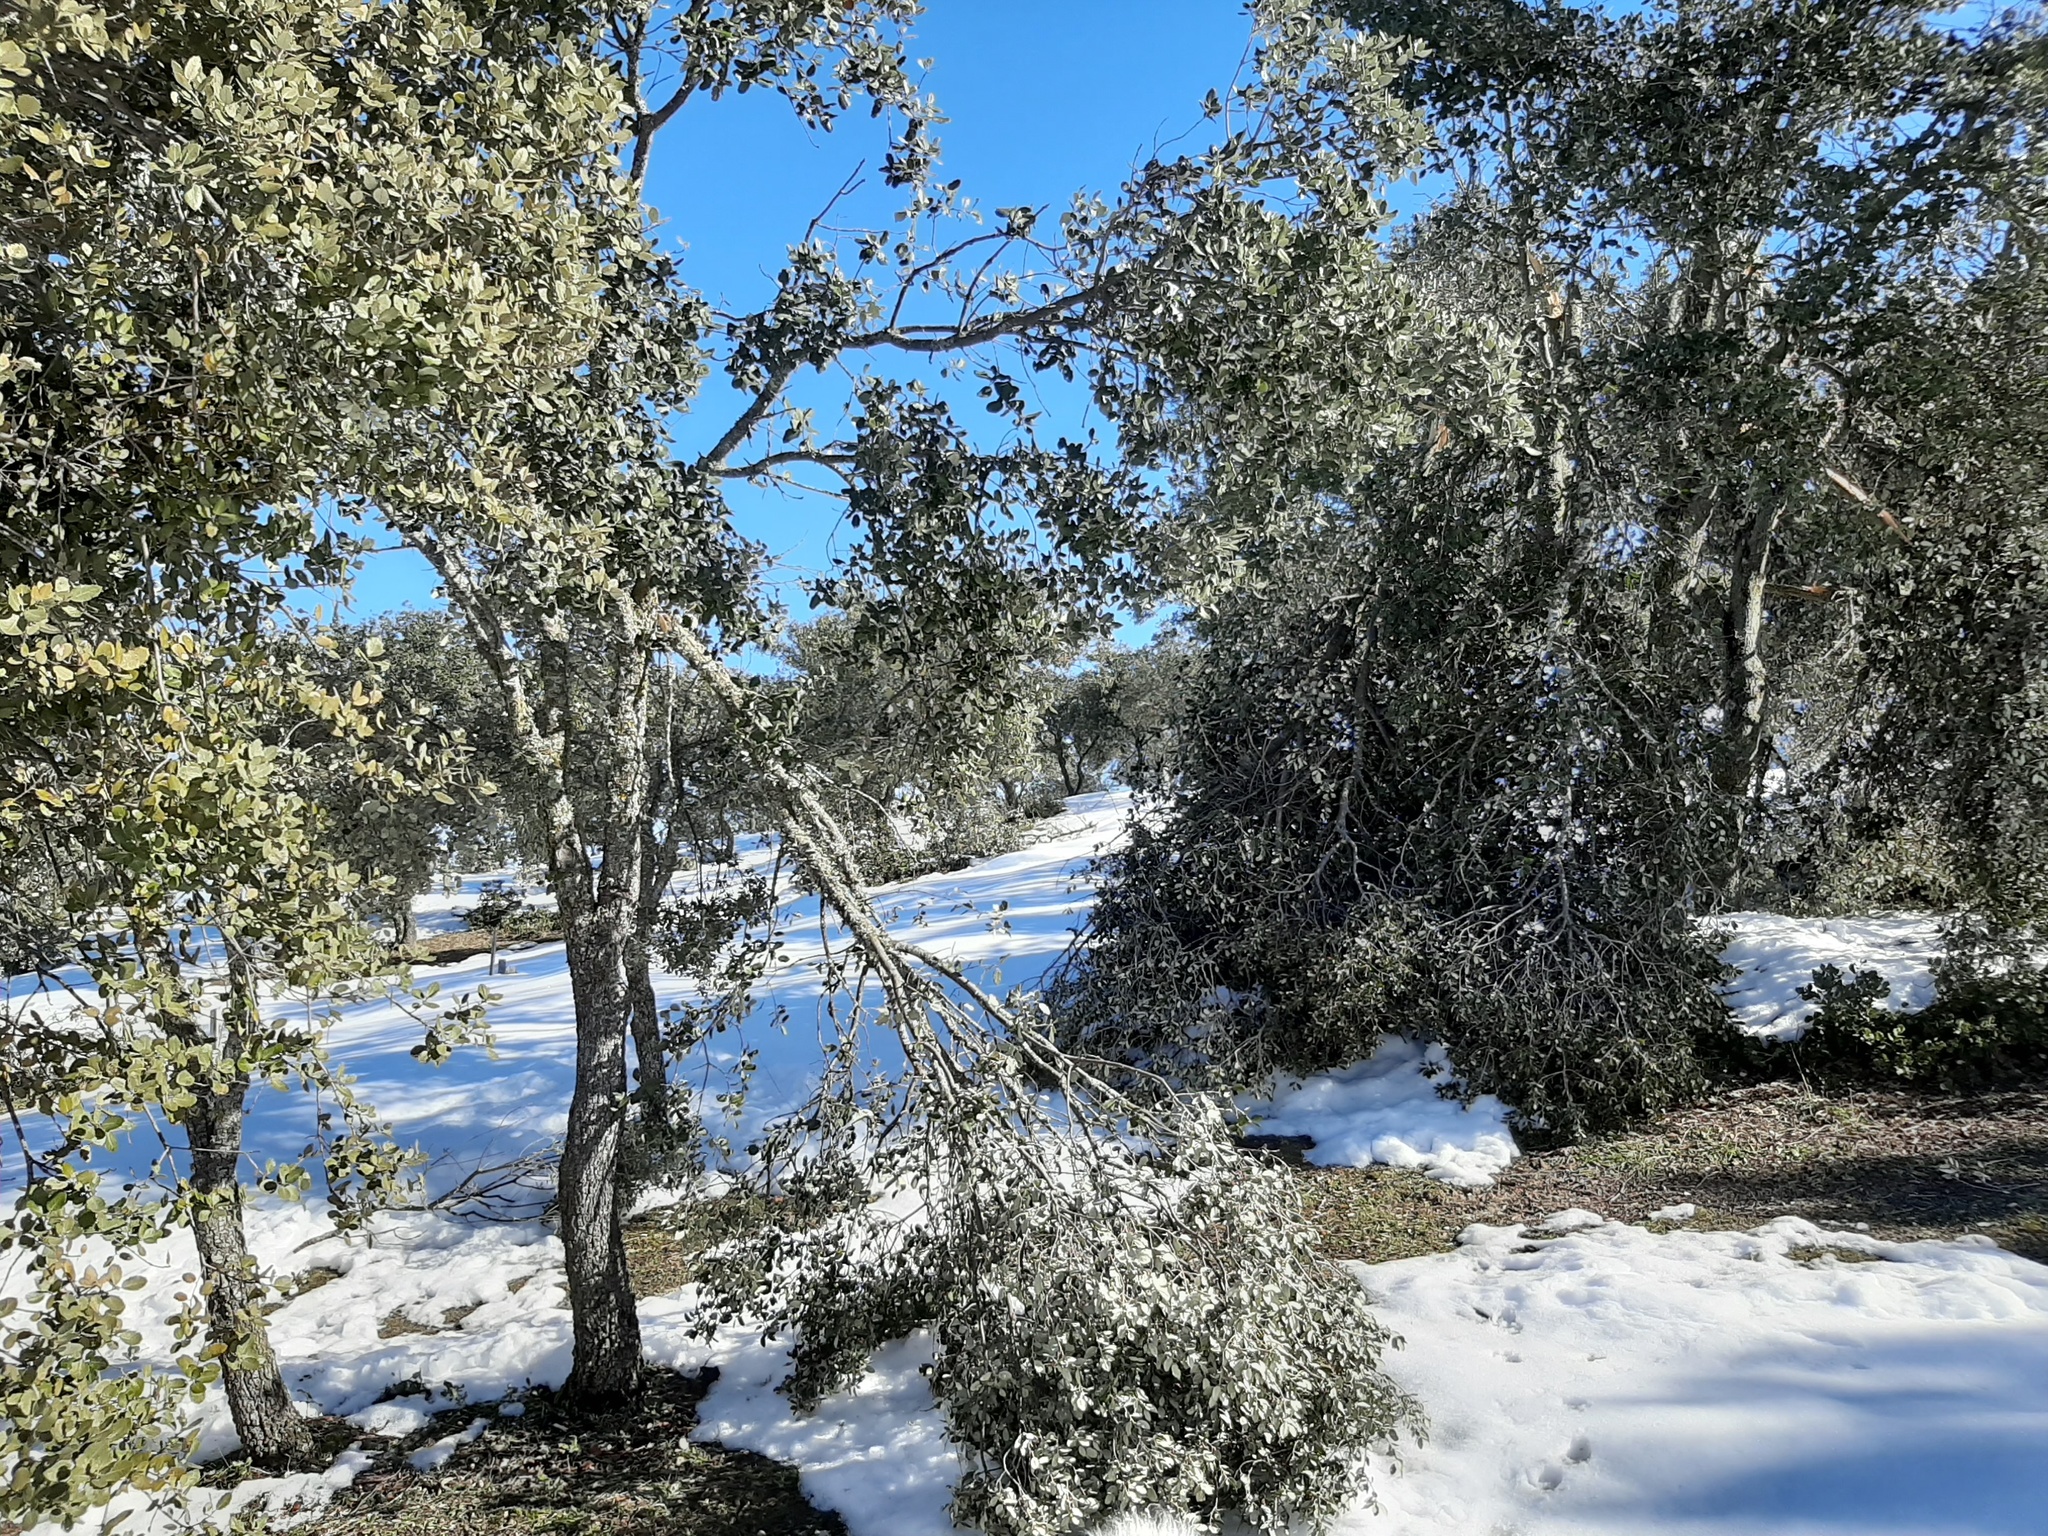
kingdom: Plantae
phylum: Tracheophyta
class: Magnoliopsida
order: Fagales
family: Fagaceae
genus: Quercus
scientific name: Quercus rotundifolia
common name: Holm oak
